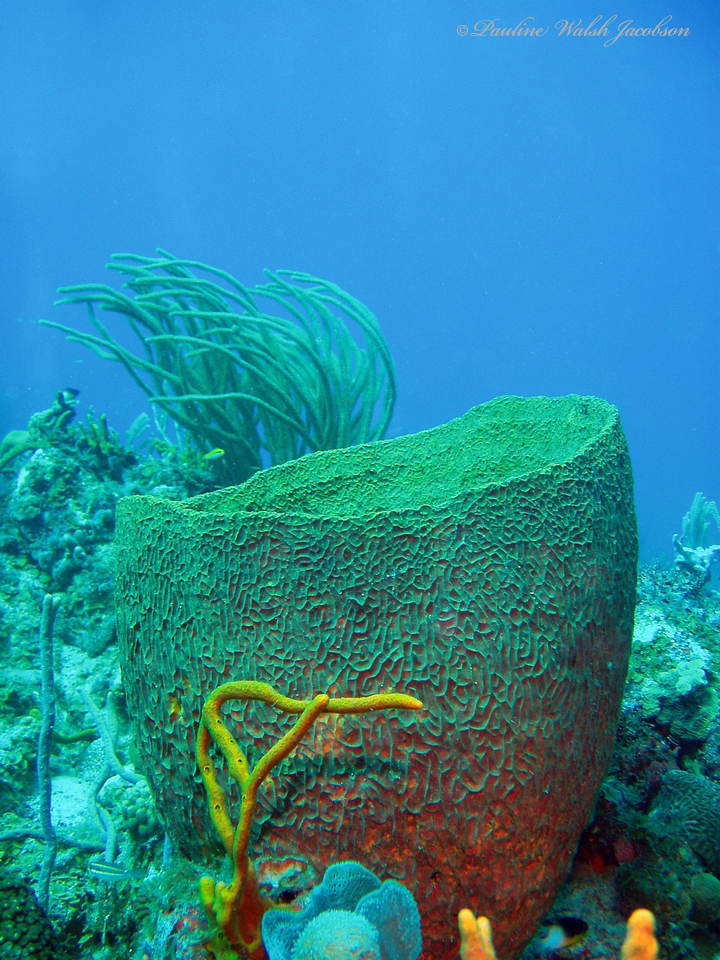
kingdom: Animalia
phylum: Porifera
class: Demospongiae
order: Verongiida
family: Aplysinidae
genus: Verongula
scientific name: Verongula gigantea
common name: Netted barrel sponge
